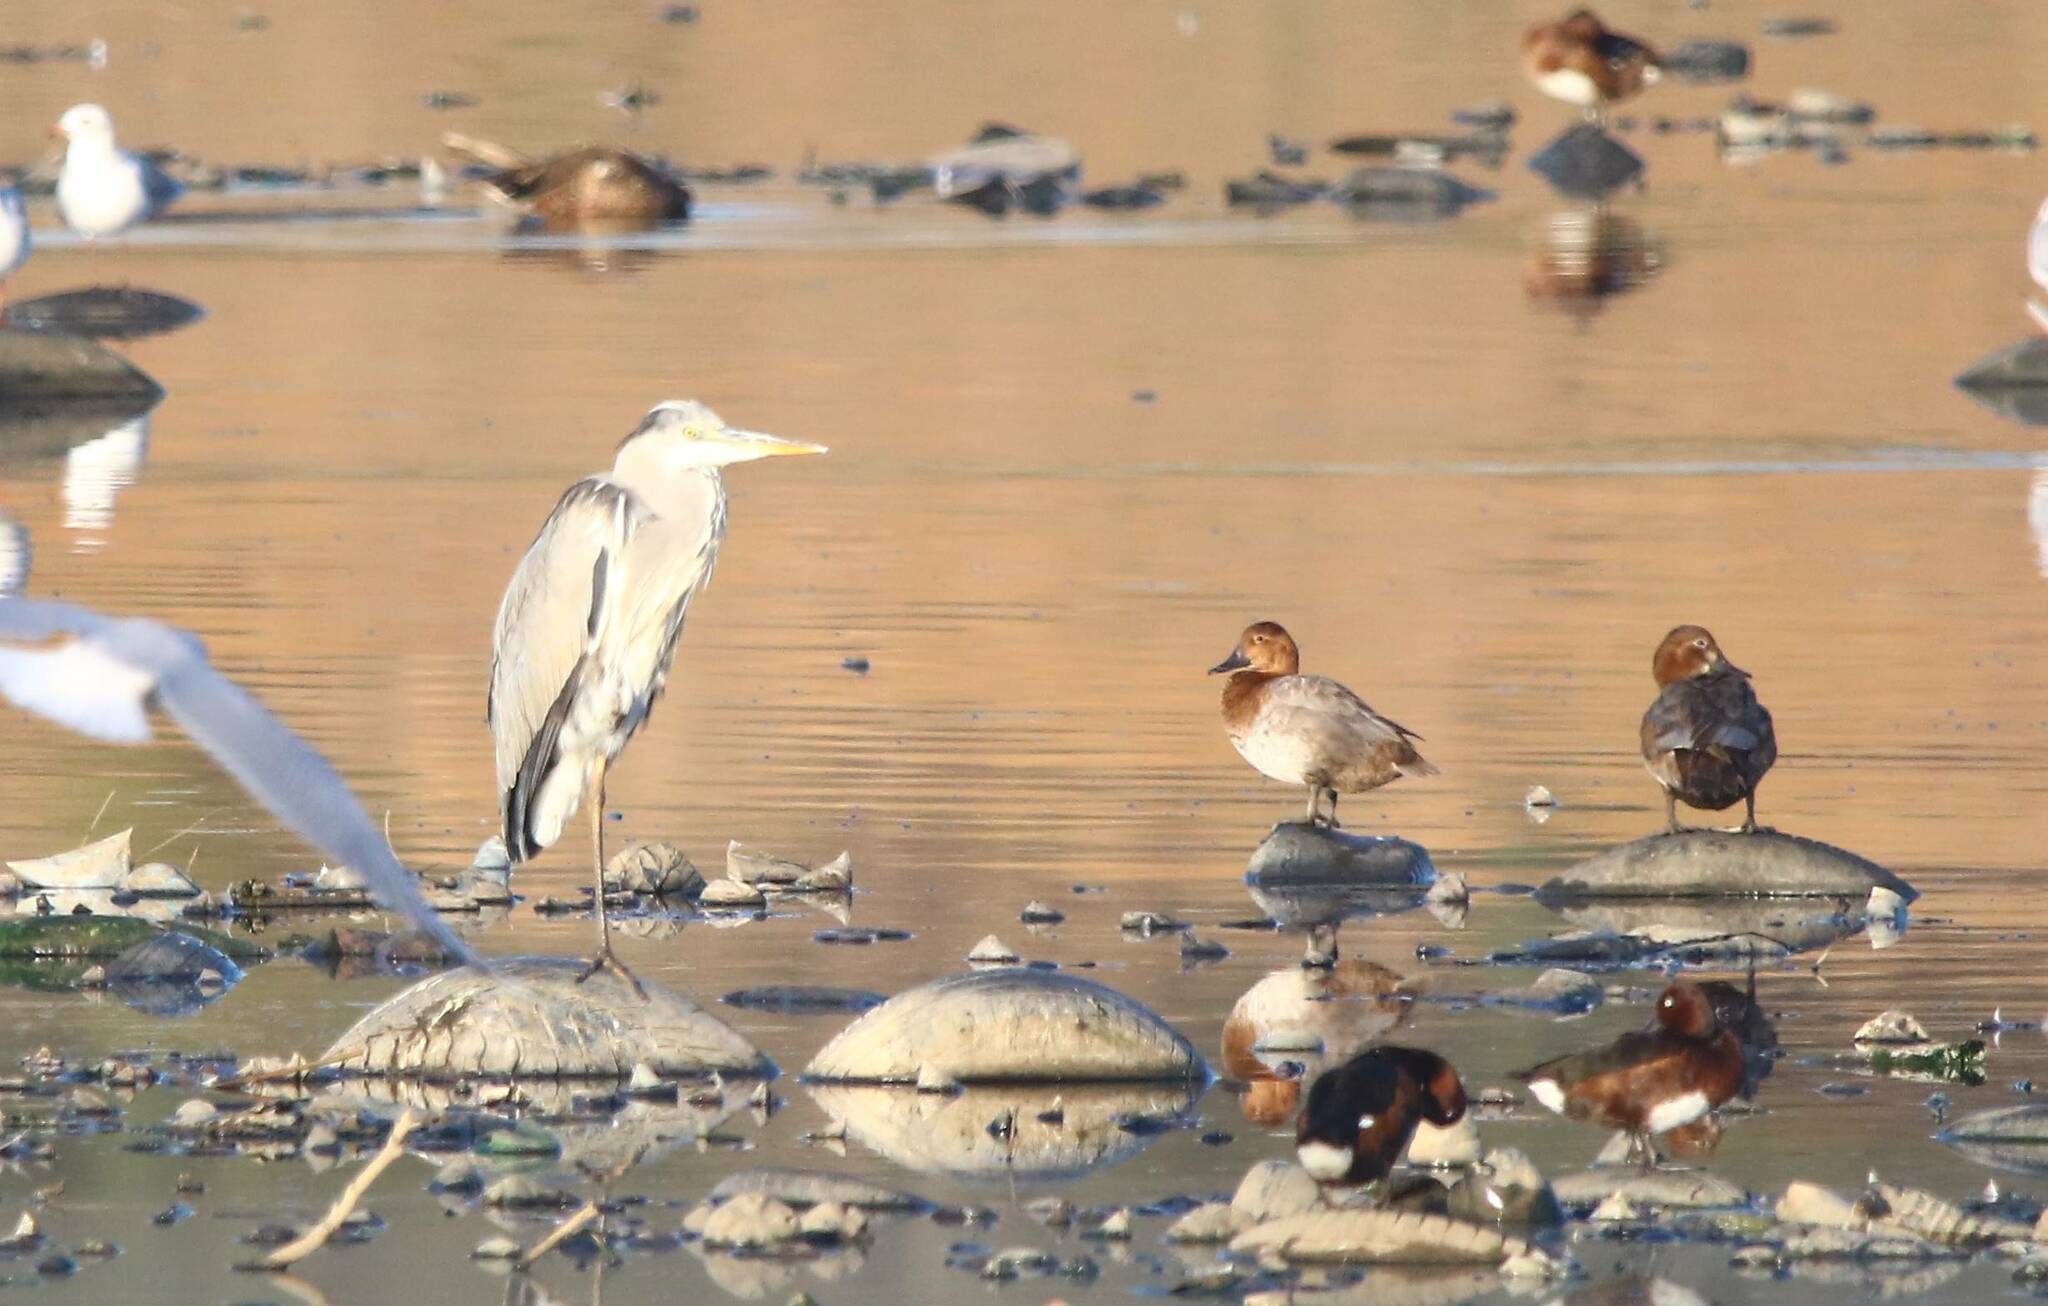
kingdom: Animalia
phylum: Chordata
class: Aves
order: Anseriformes
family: Anatidae
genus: Aythya
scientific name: Aythya ferina
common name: Common pochard
